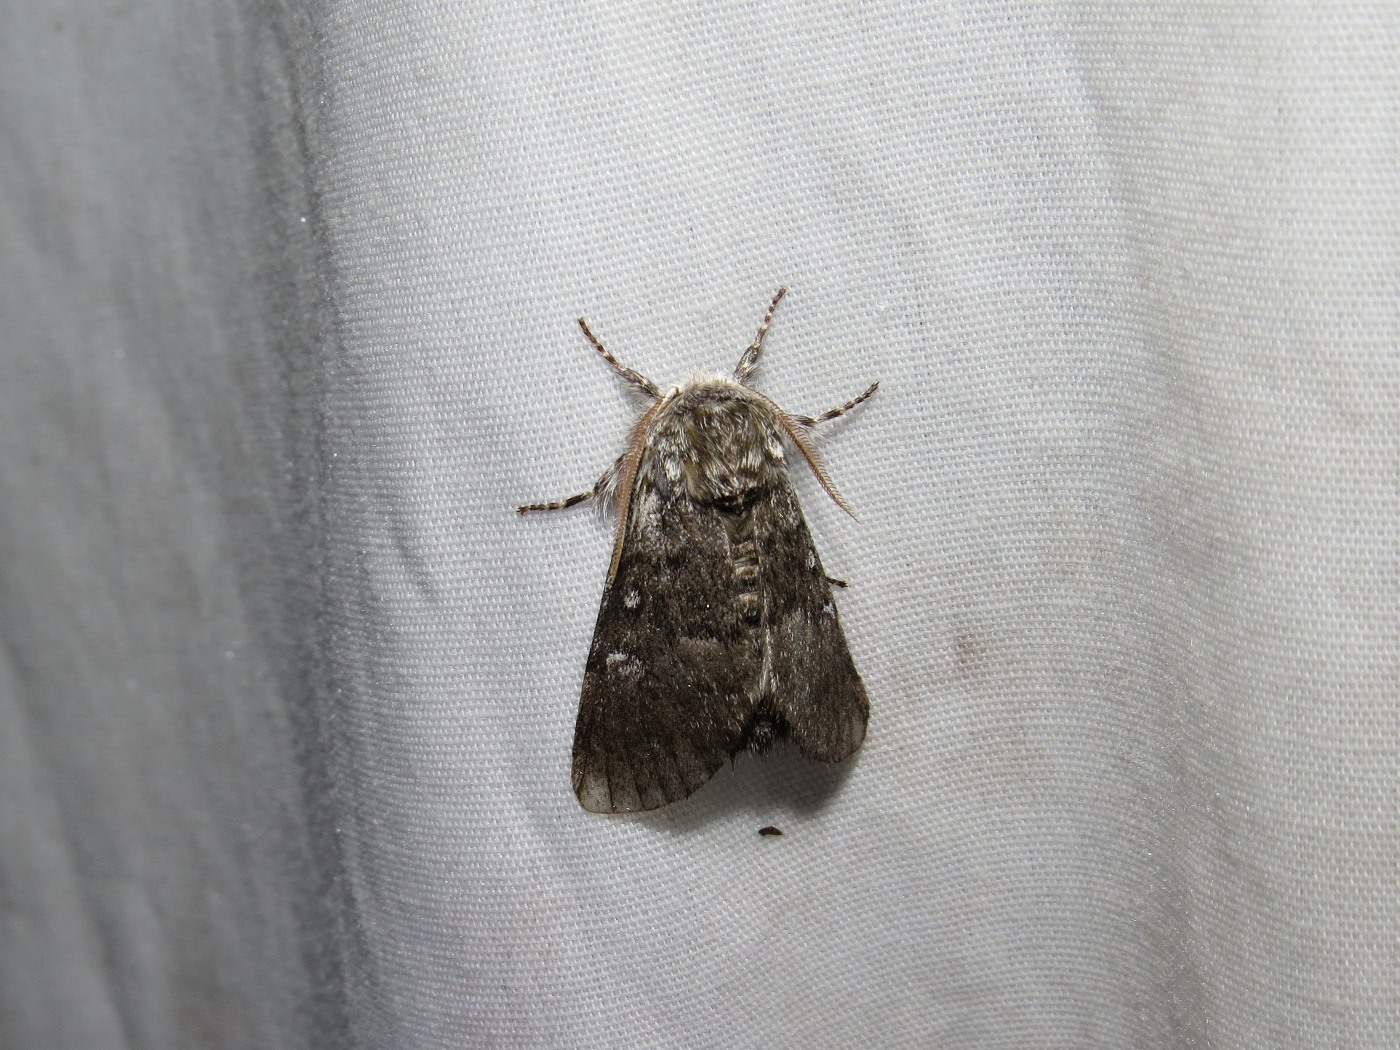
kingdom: Animalia
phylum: Arthropoda
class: Insecta
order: Lepidoptera
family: Noctuidae
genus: Colocasia
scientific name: Colocasia propinquilinea
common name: Close-banded demas
